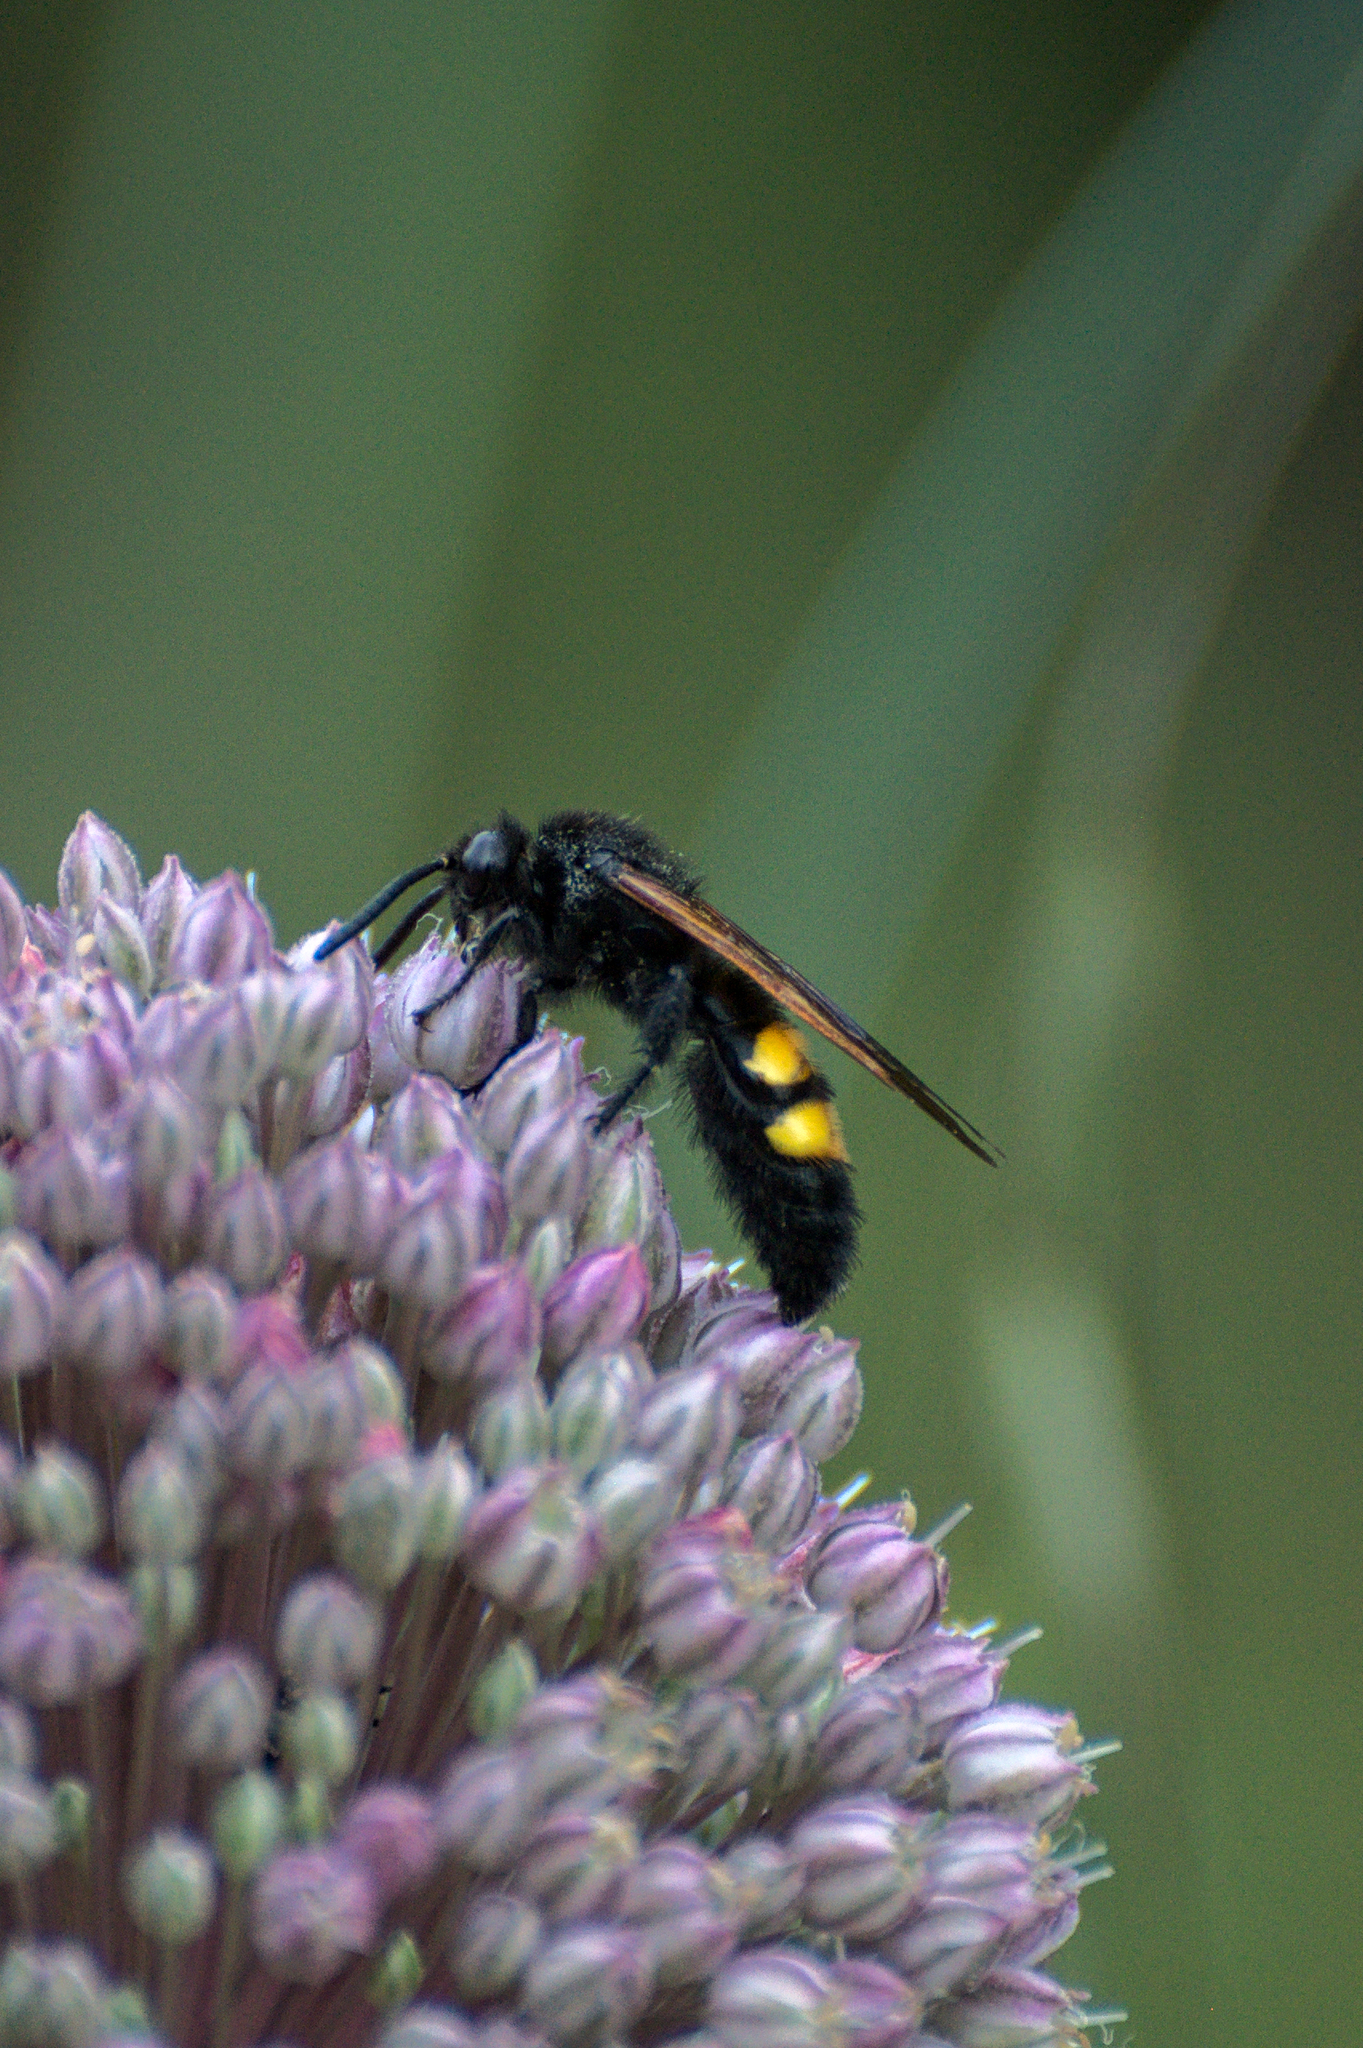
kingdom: Animalia
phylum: Arthropoda
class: Insecta
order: Hymenoptera
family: Scoliidae
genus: Megascolia
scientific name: Megascolia maculata
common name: Mammoth wasp
